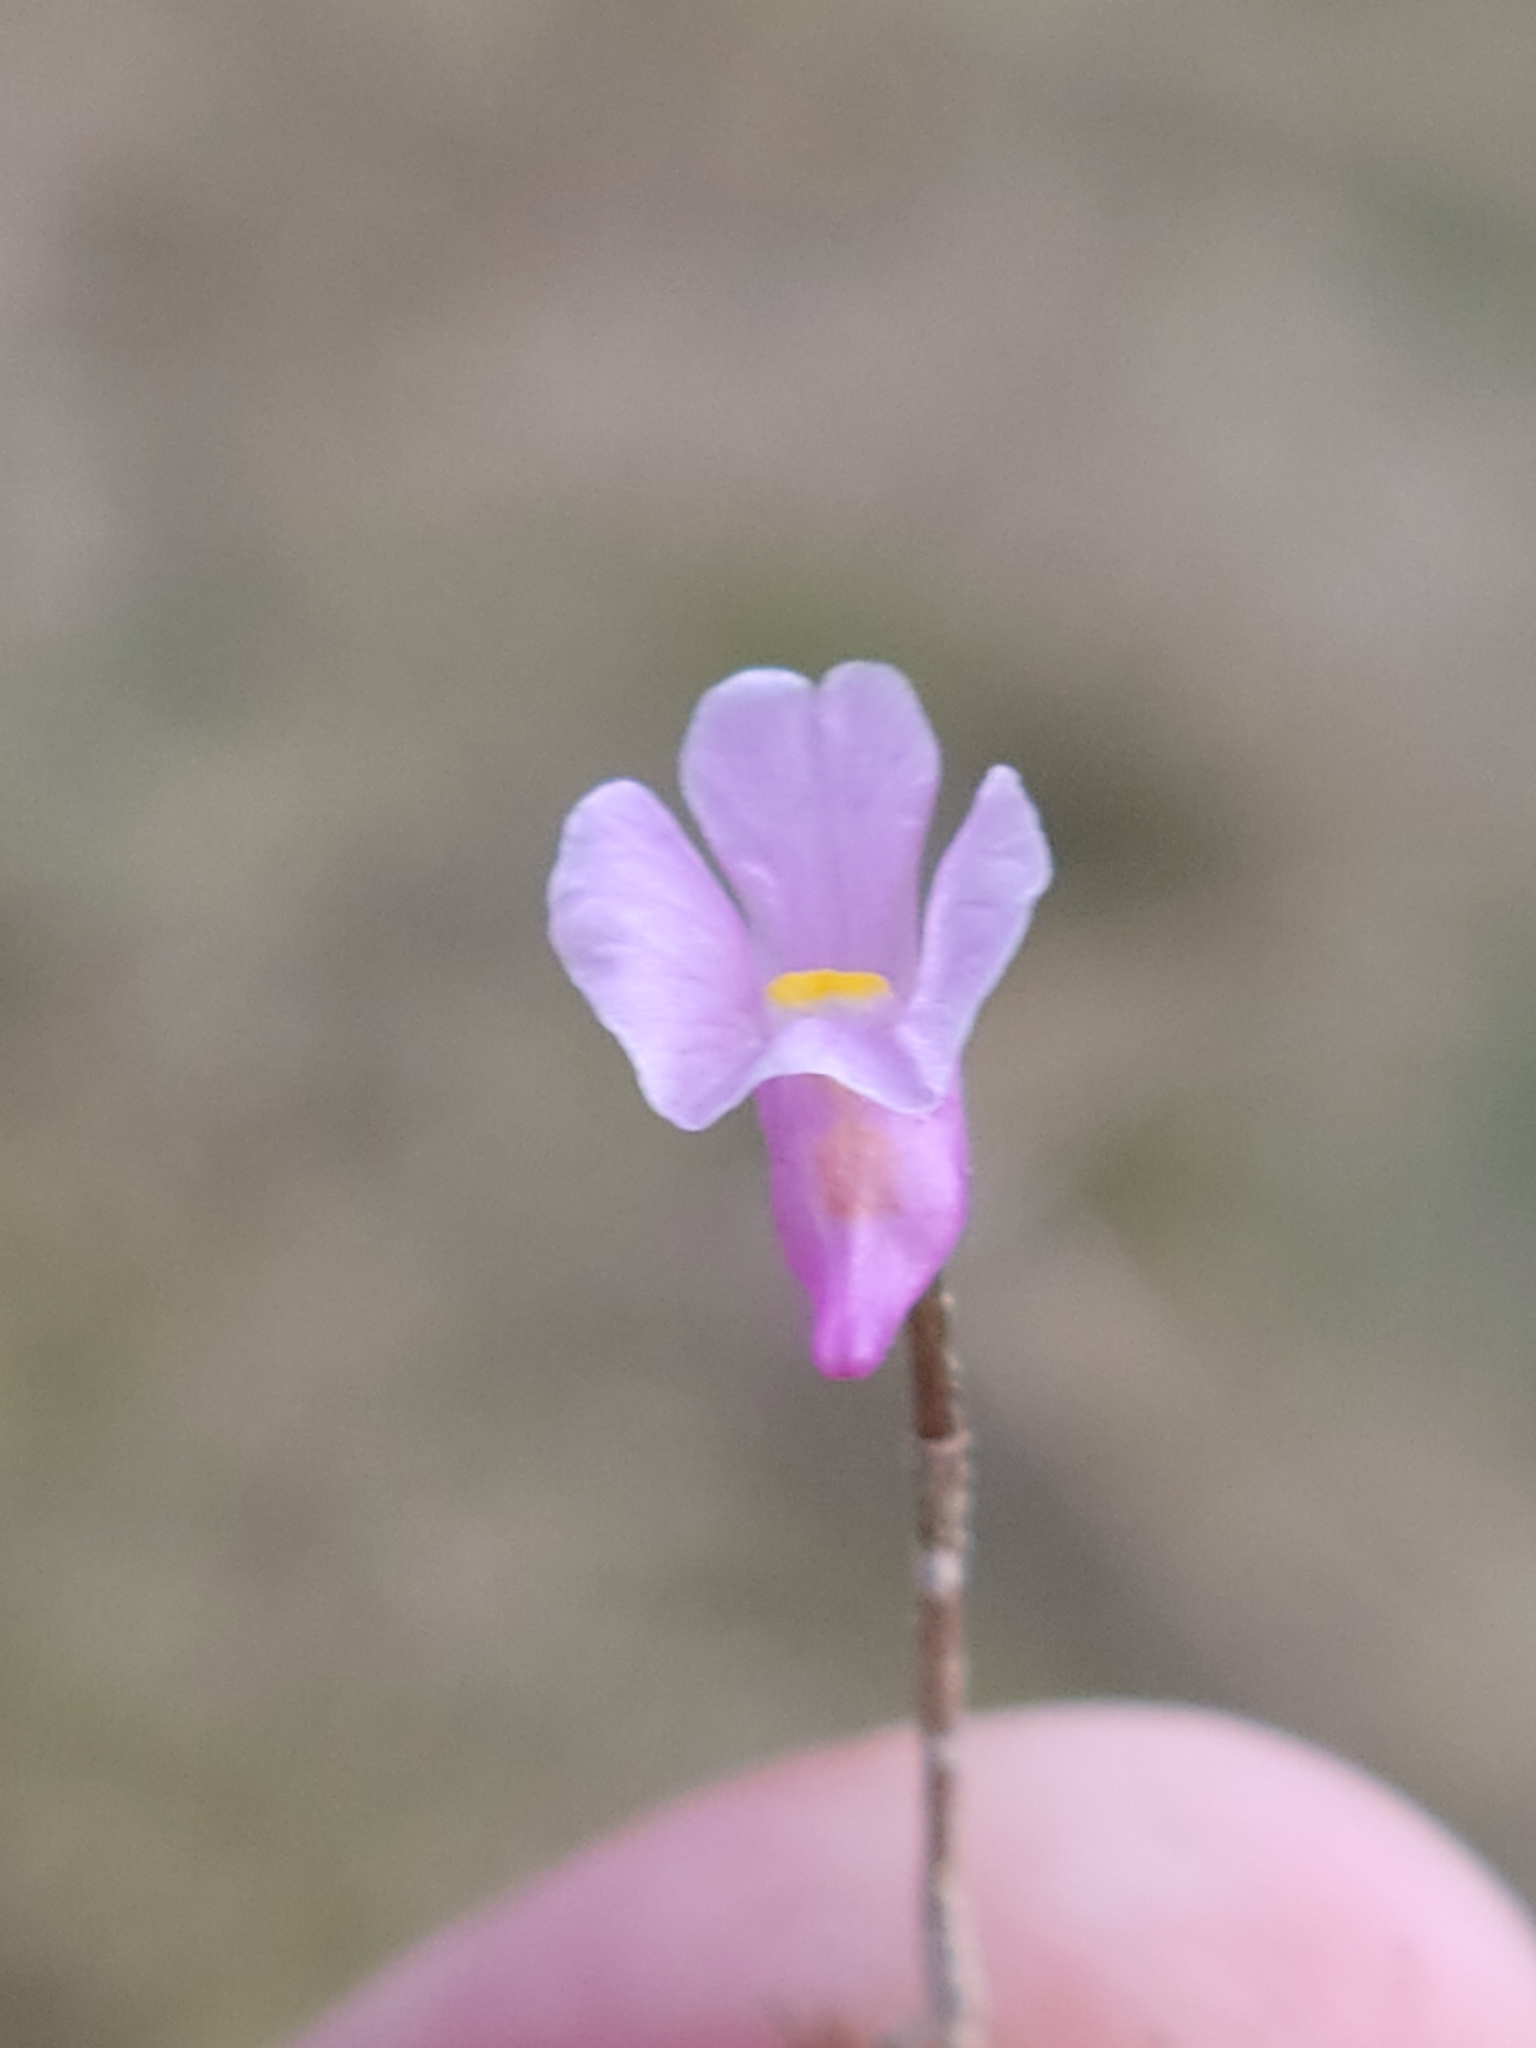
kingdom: Plantae
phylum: Tracheophyta
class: Magnoliopsida
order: Lamiales
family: Lentibulariaceae
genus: Utricularia
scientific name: Utricularia resupinata
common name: Northeastern bladderwort
